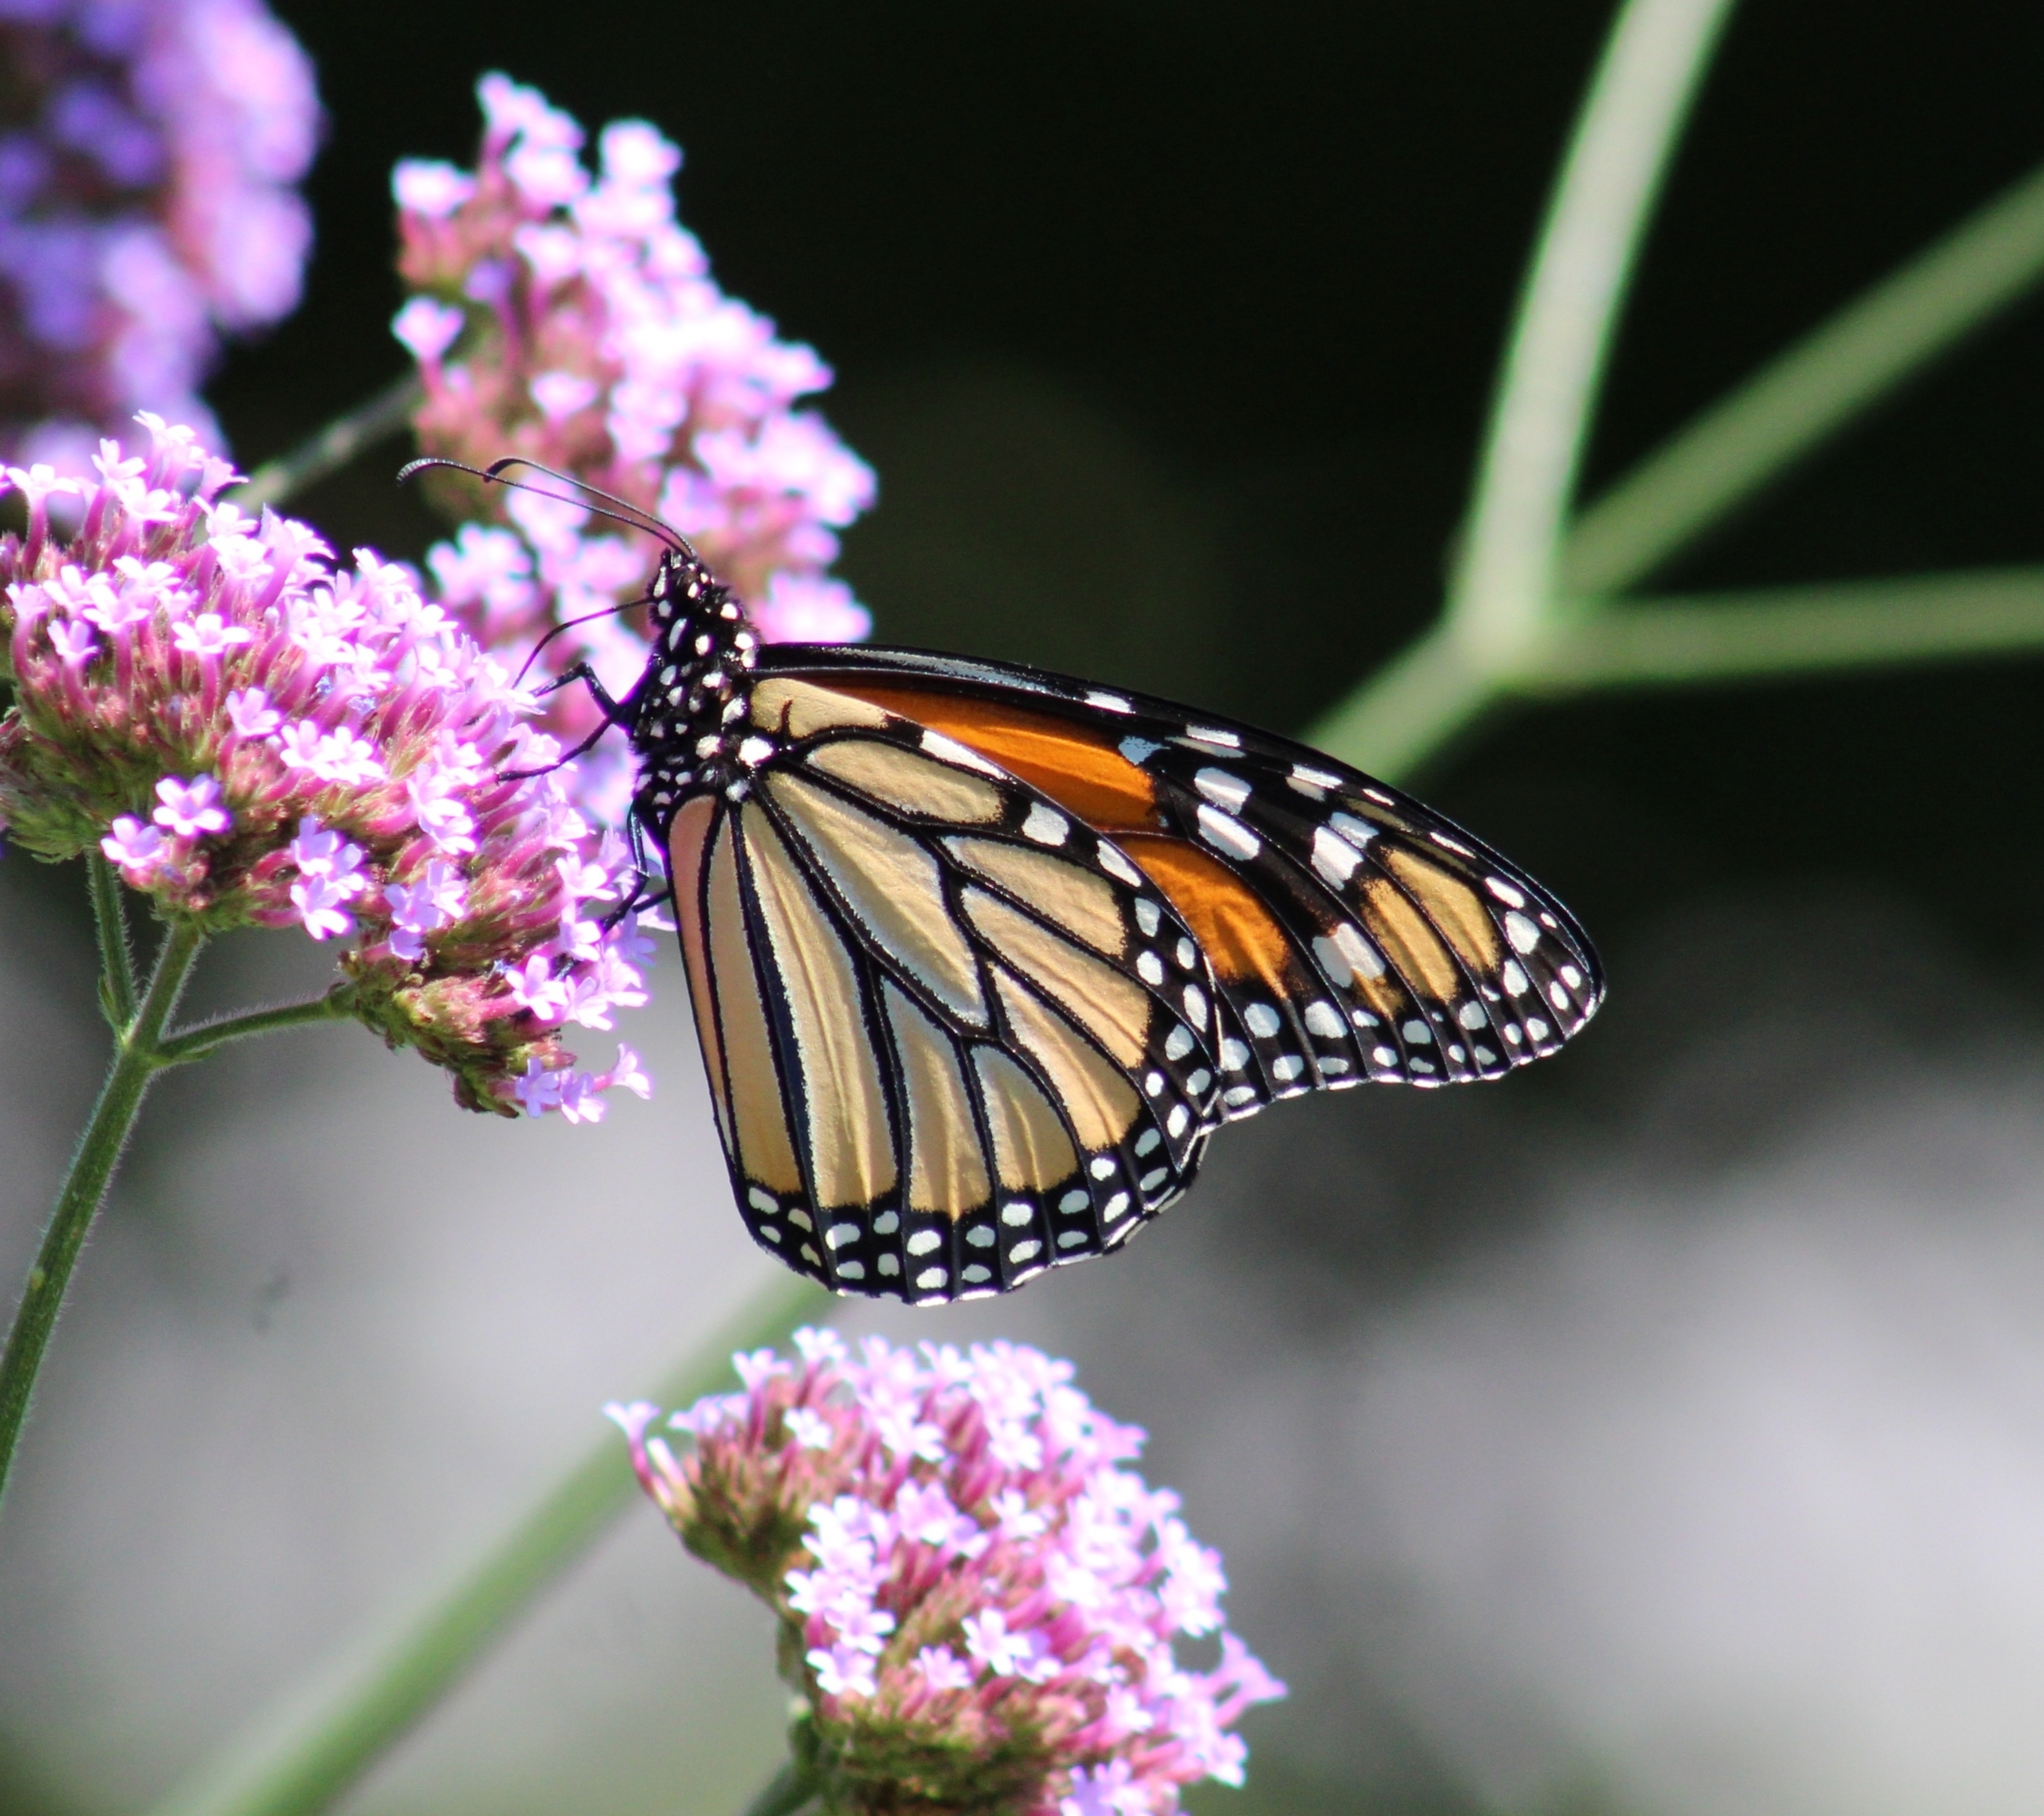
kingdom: Animalia
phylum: Arthropoda
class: Insecta
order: Lepidoptera
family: Nymphalidae
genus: Danaus
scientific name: Danaus plexippus
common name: Monarch
